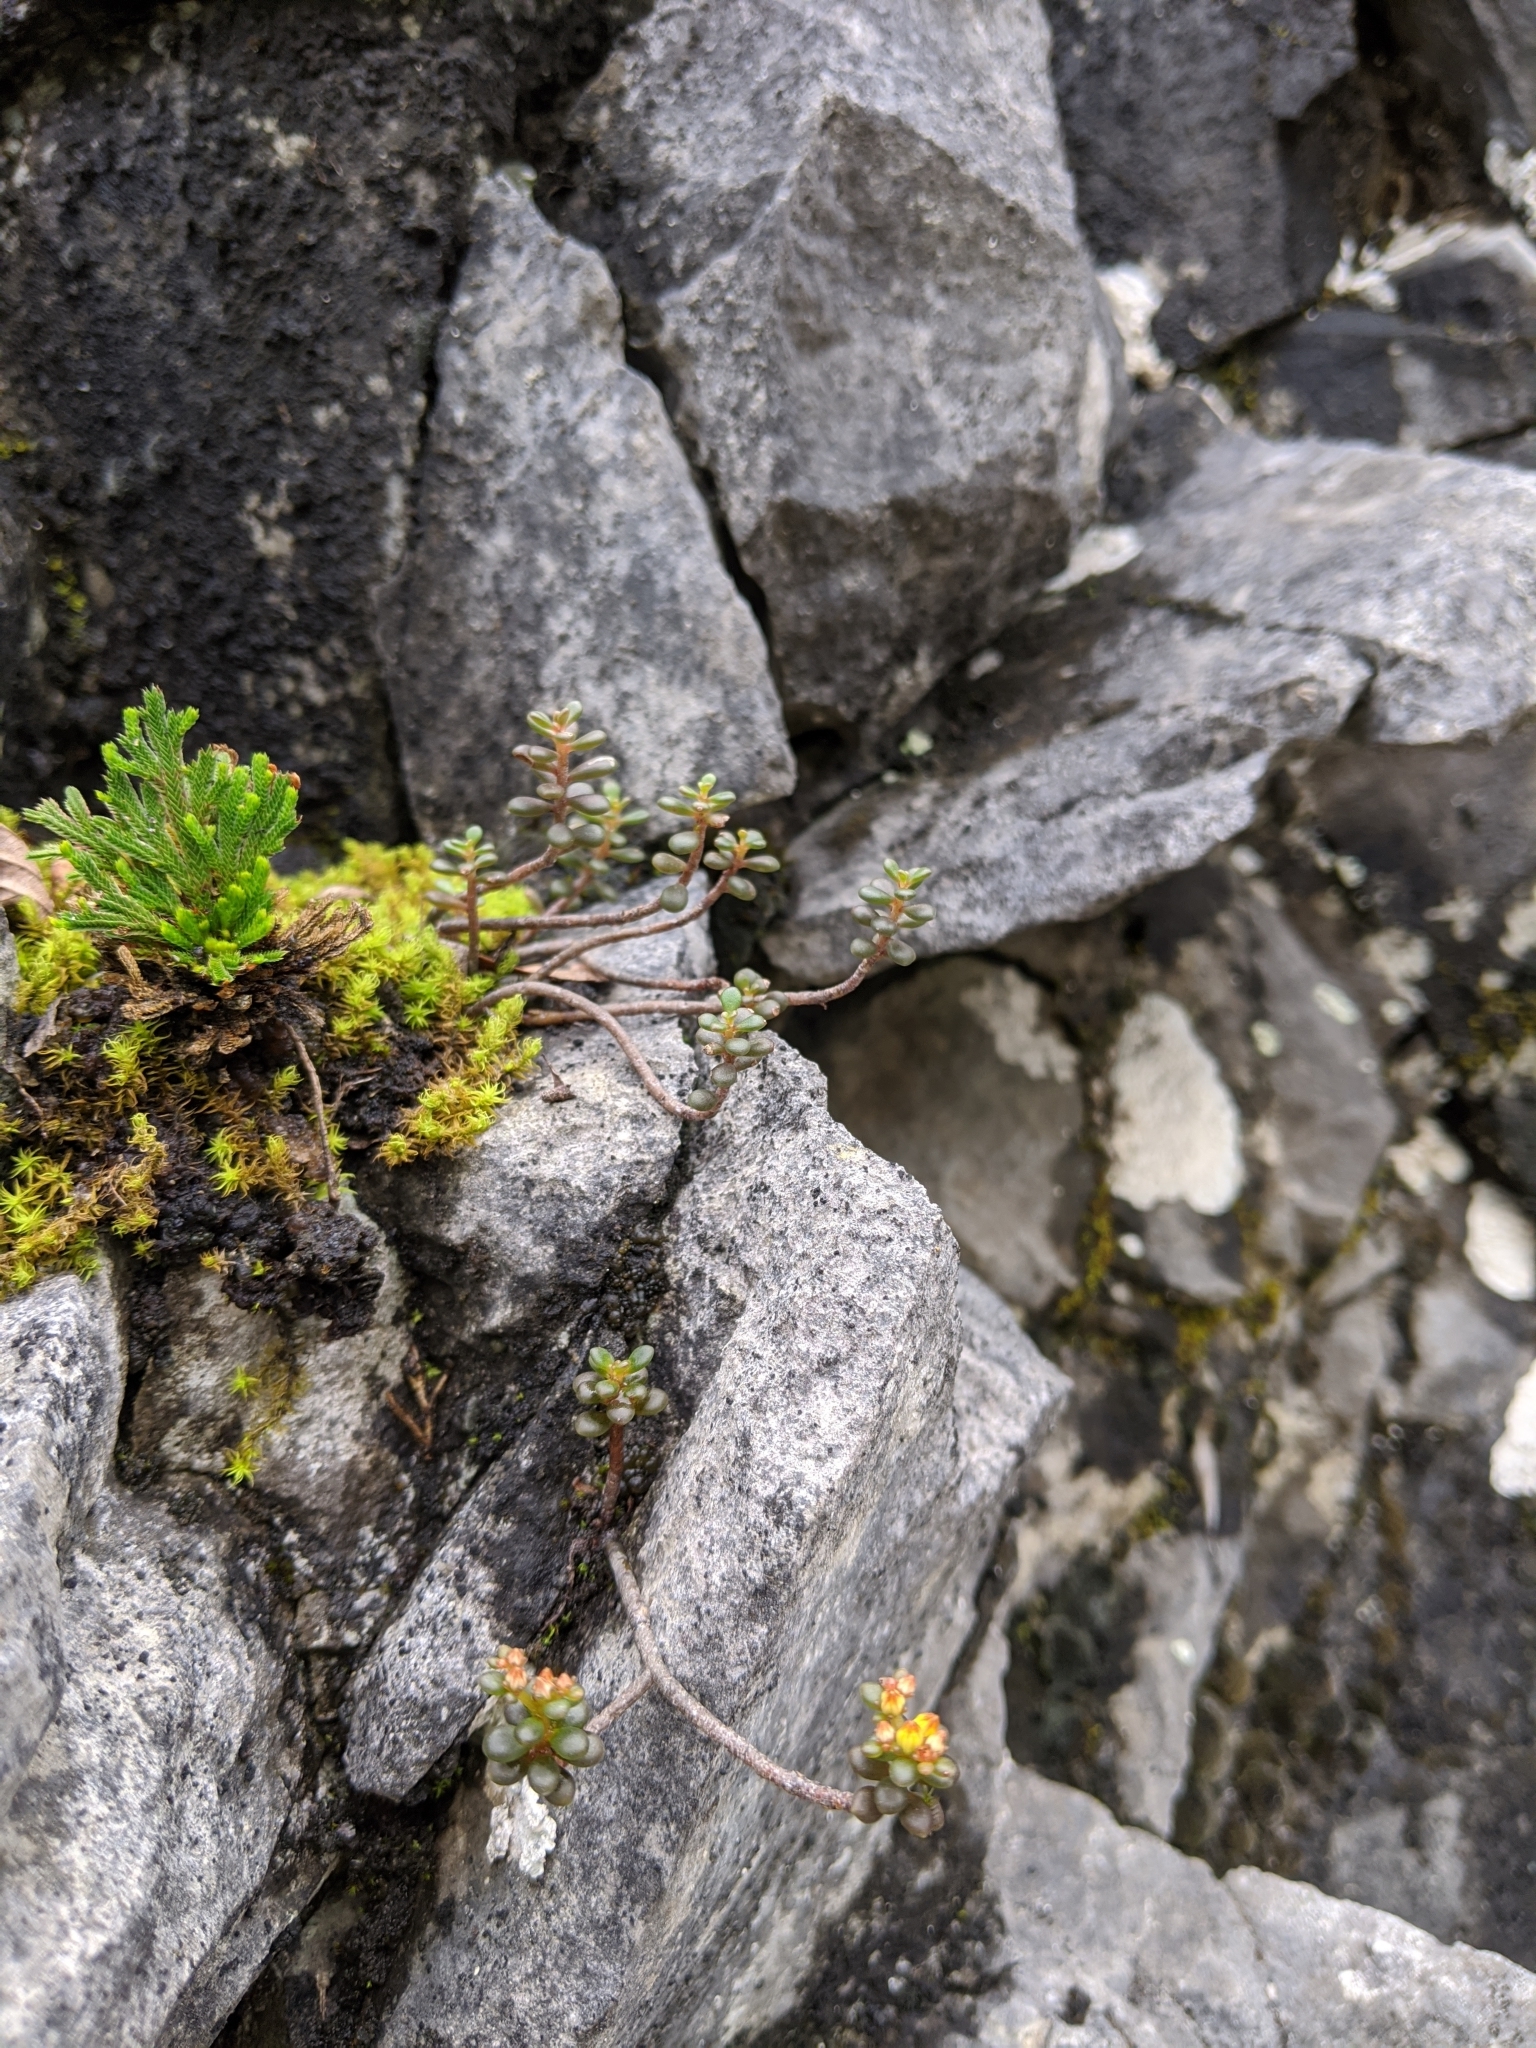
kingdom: Plantae
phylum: Tracheophyta
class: Magnoliopsida
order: Saxifragales
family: Crassulaceae
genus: Sedum
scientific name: Sedum tarokoense
